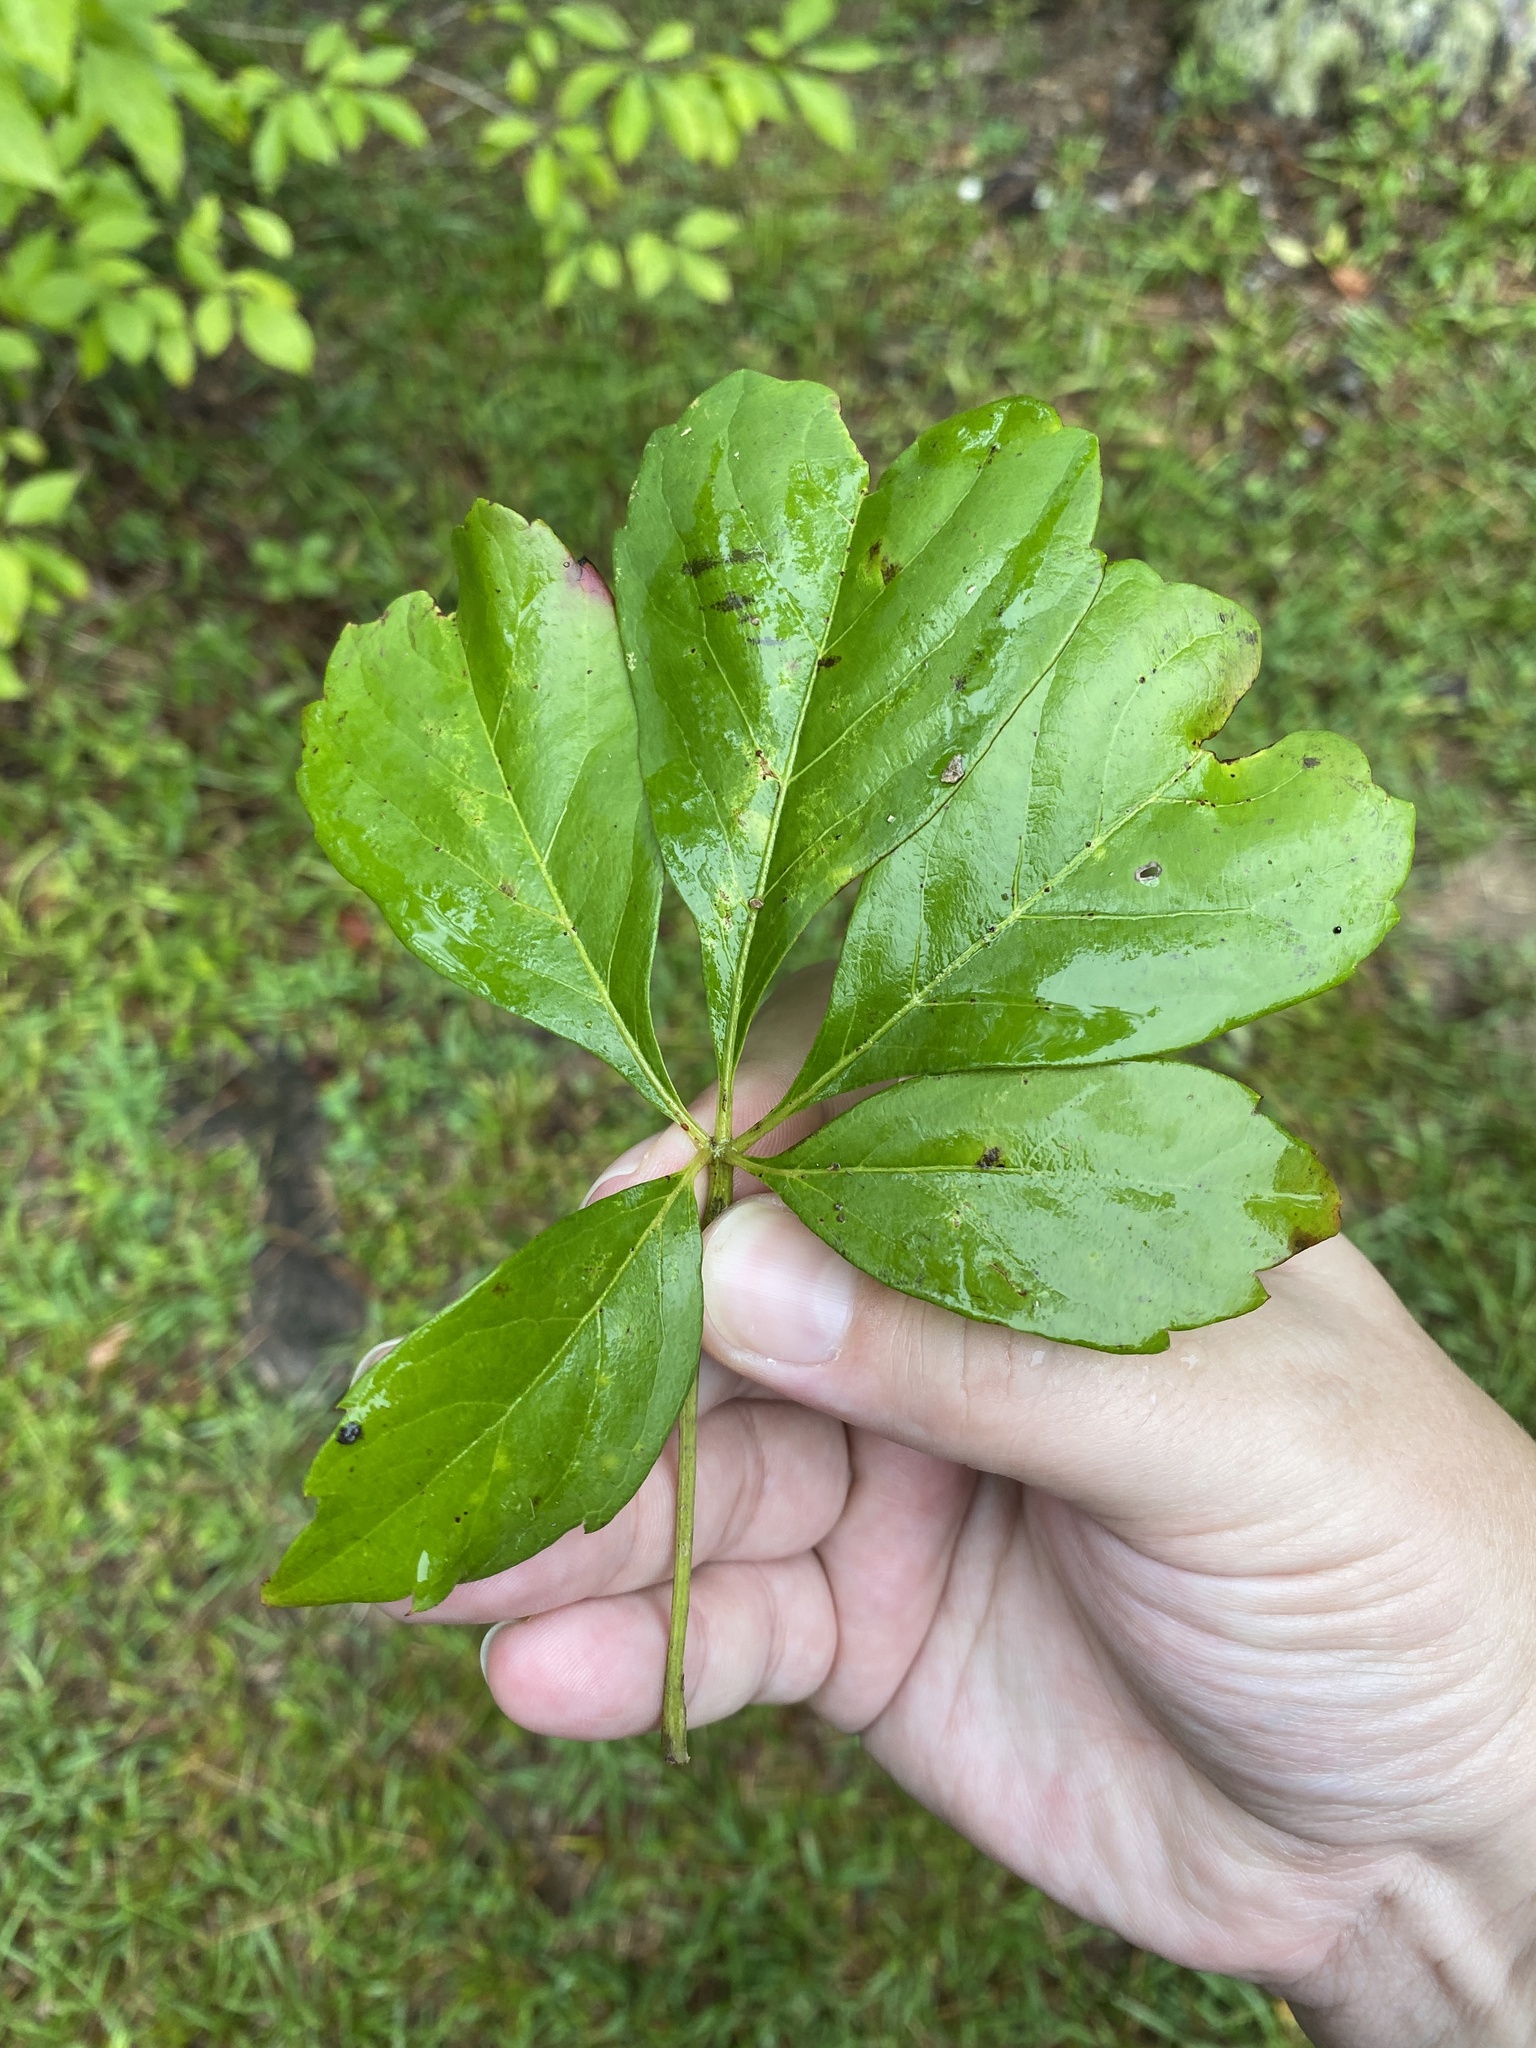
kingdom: Plantae
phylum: Tracheophyta
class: Magnoliopsida
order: Vitales
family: Vitaceae
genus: Parthenocissus
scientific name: Parthenocissus quinquefolia
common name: Virginia-creeper
